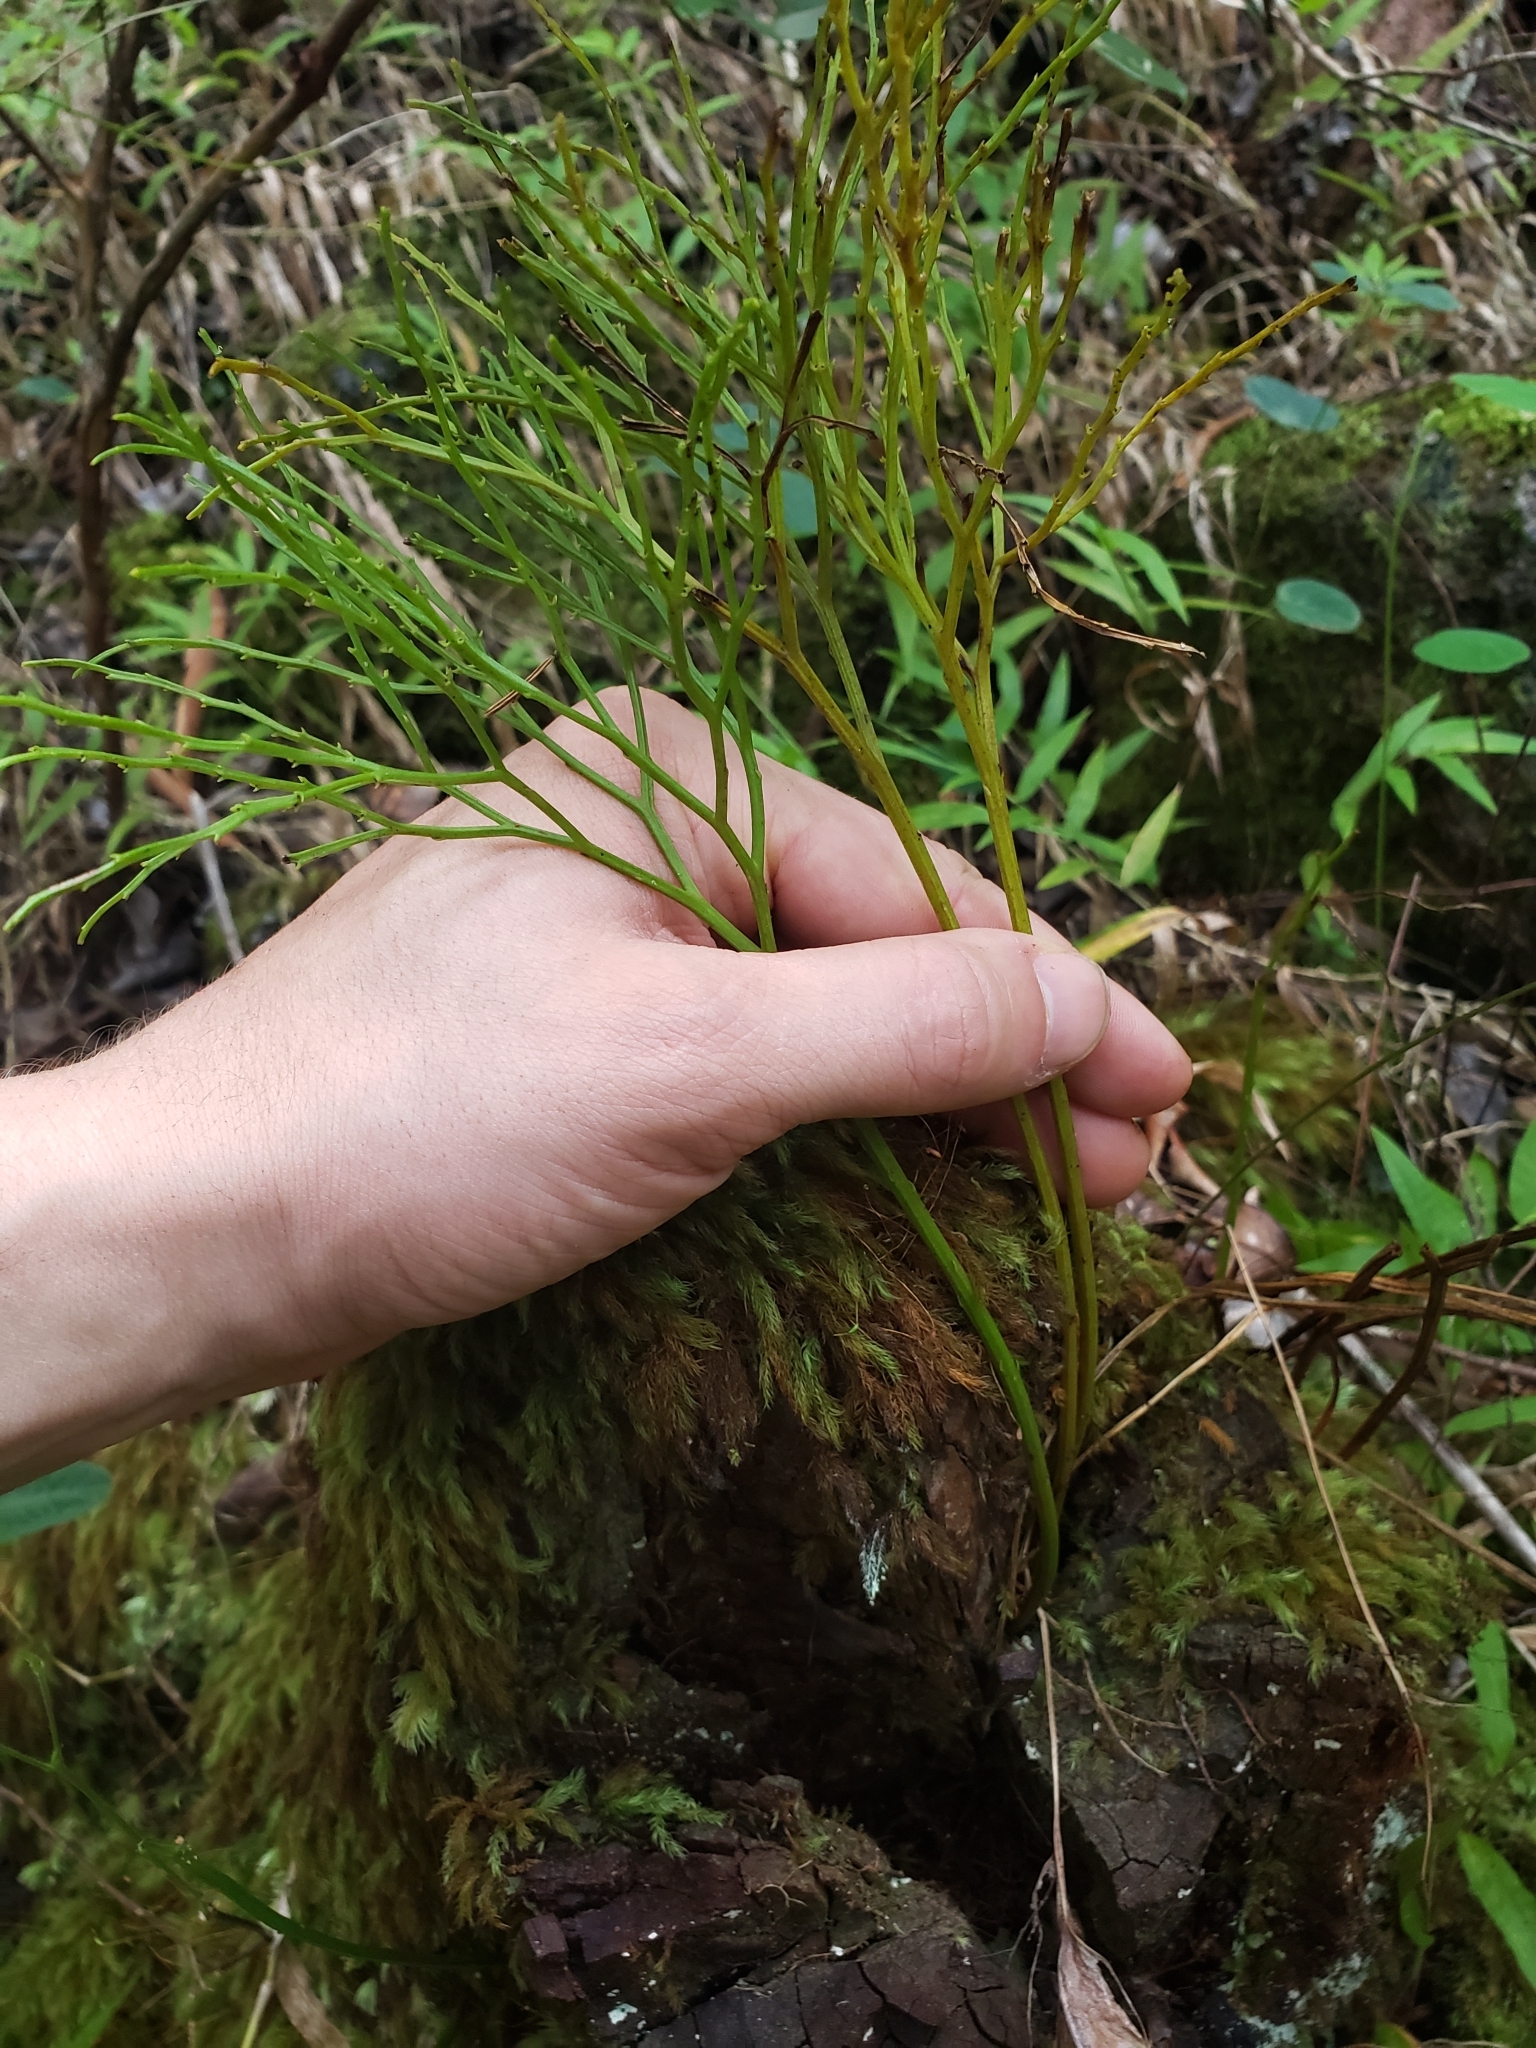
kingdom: Plantae
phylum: Tracheophyta
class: Polypodiopsida
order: Psilotales
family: Psilotaceae
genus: Psilotum
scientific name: Psilotum nudum
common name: Skeleton fork fern
